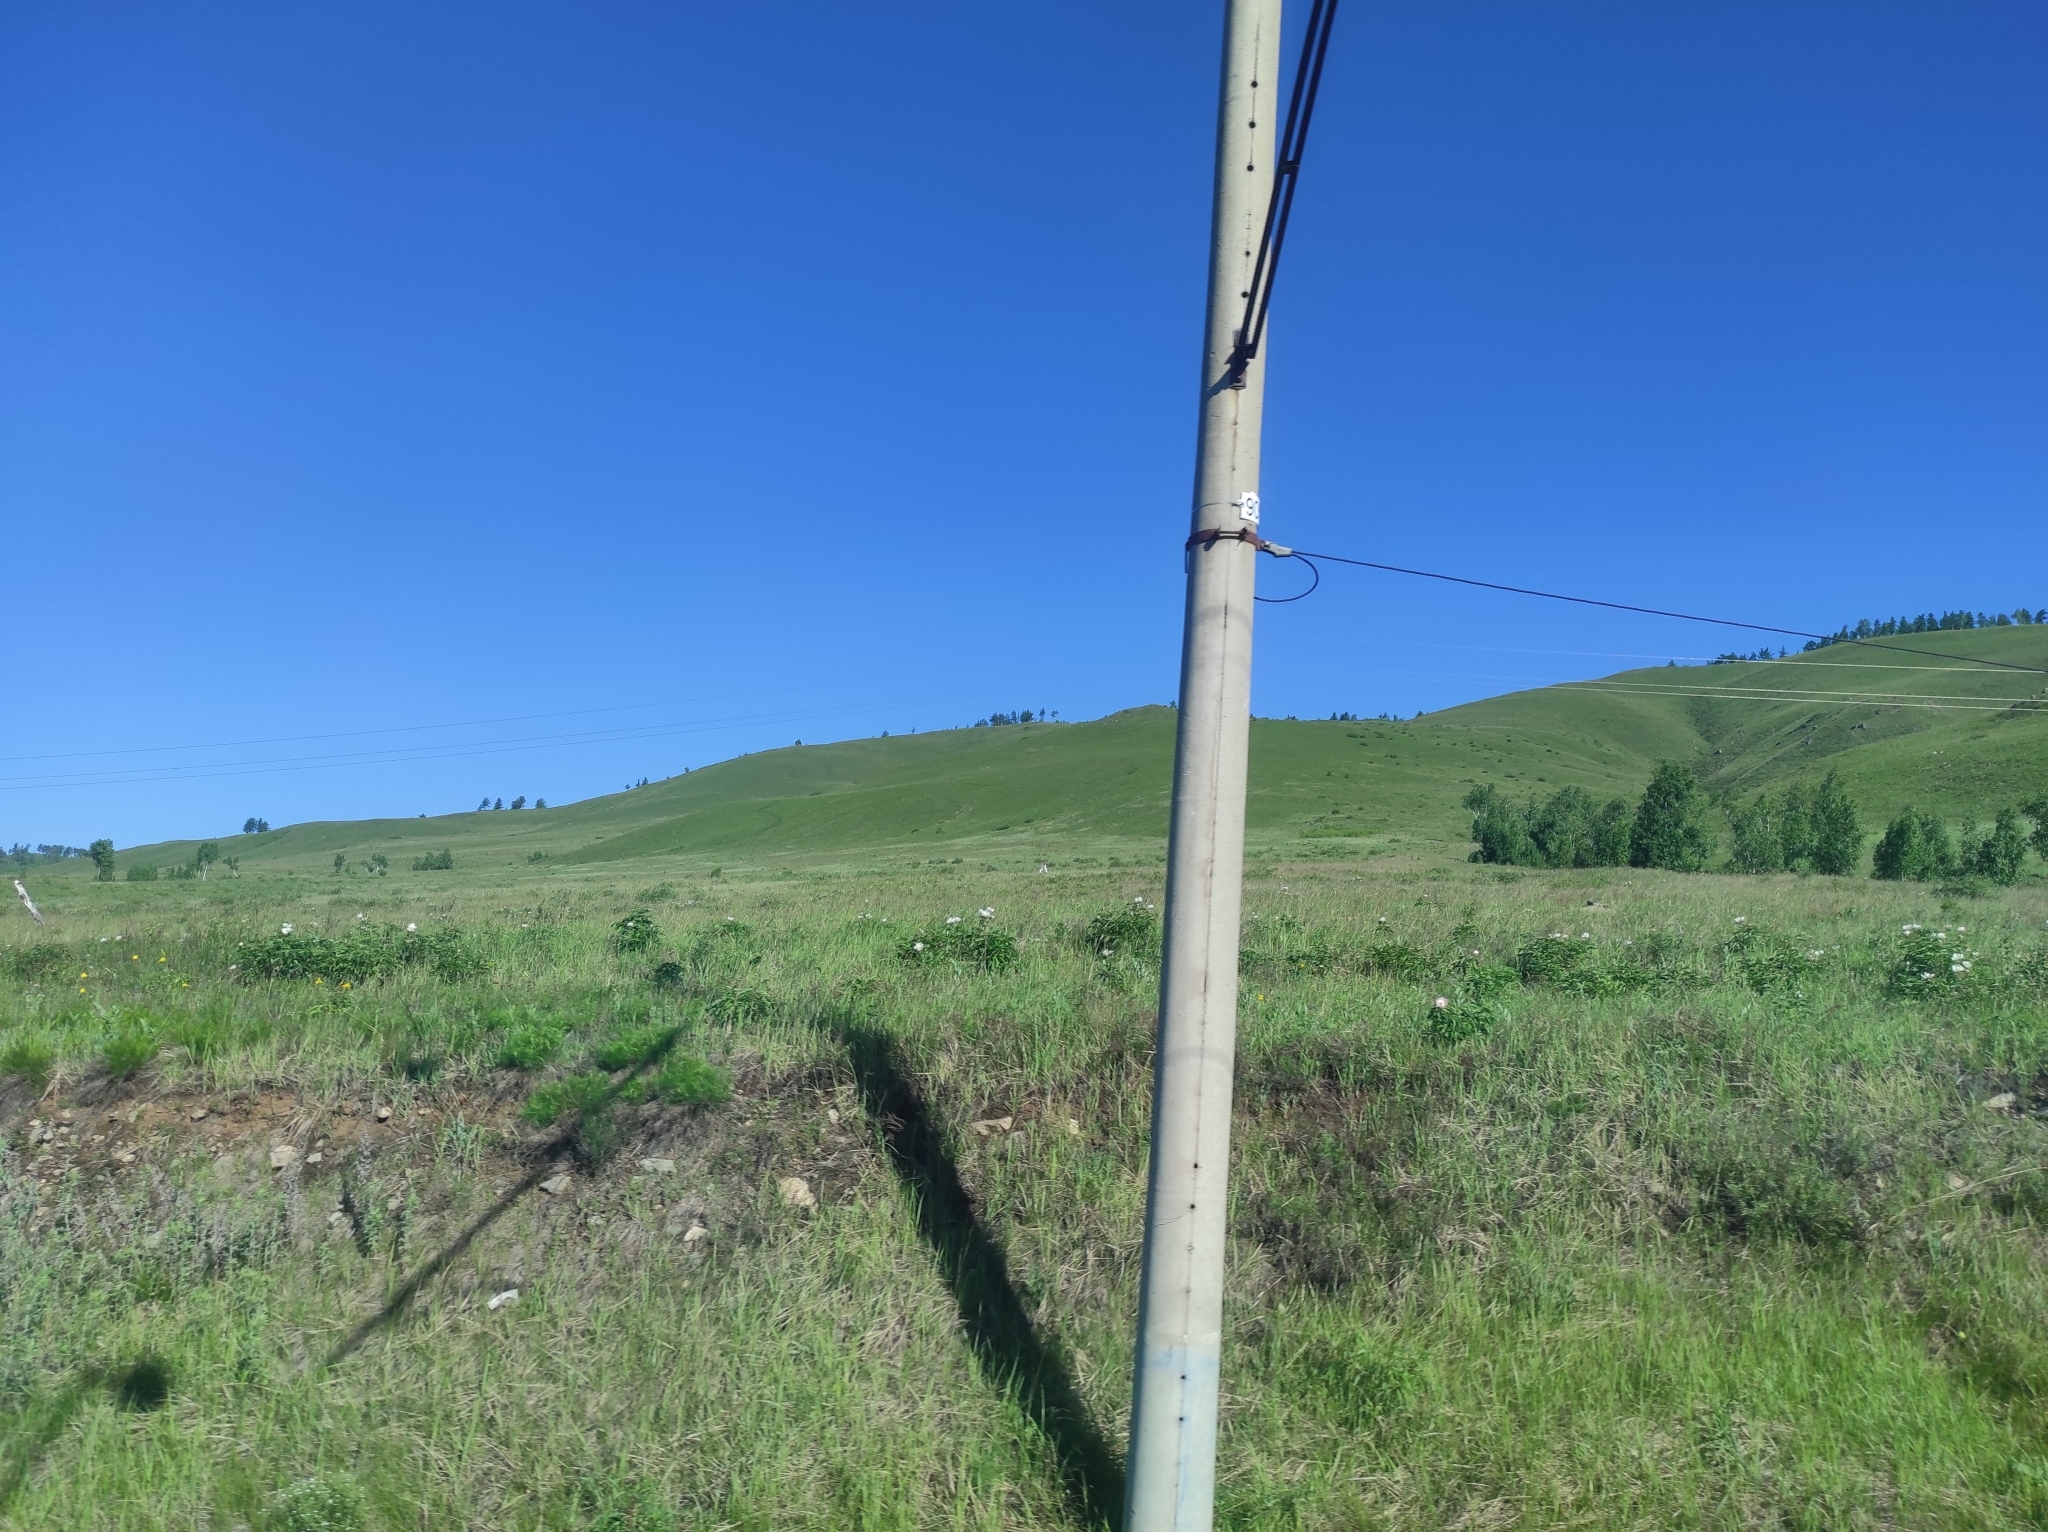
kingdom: Plantae
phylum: Tracheophyta
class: Magnoliopsida
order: Saxifragales
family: Paeoniaceae
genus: Paeonia
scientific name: Paeonia lactiflora
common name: Chinese peony
